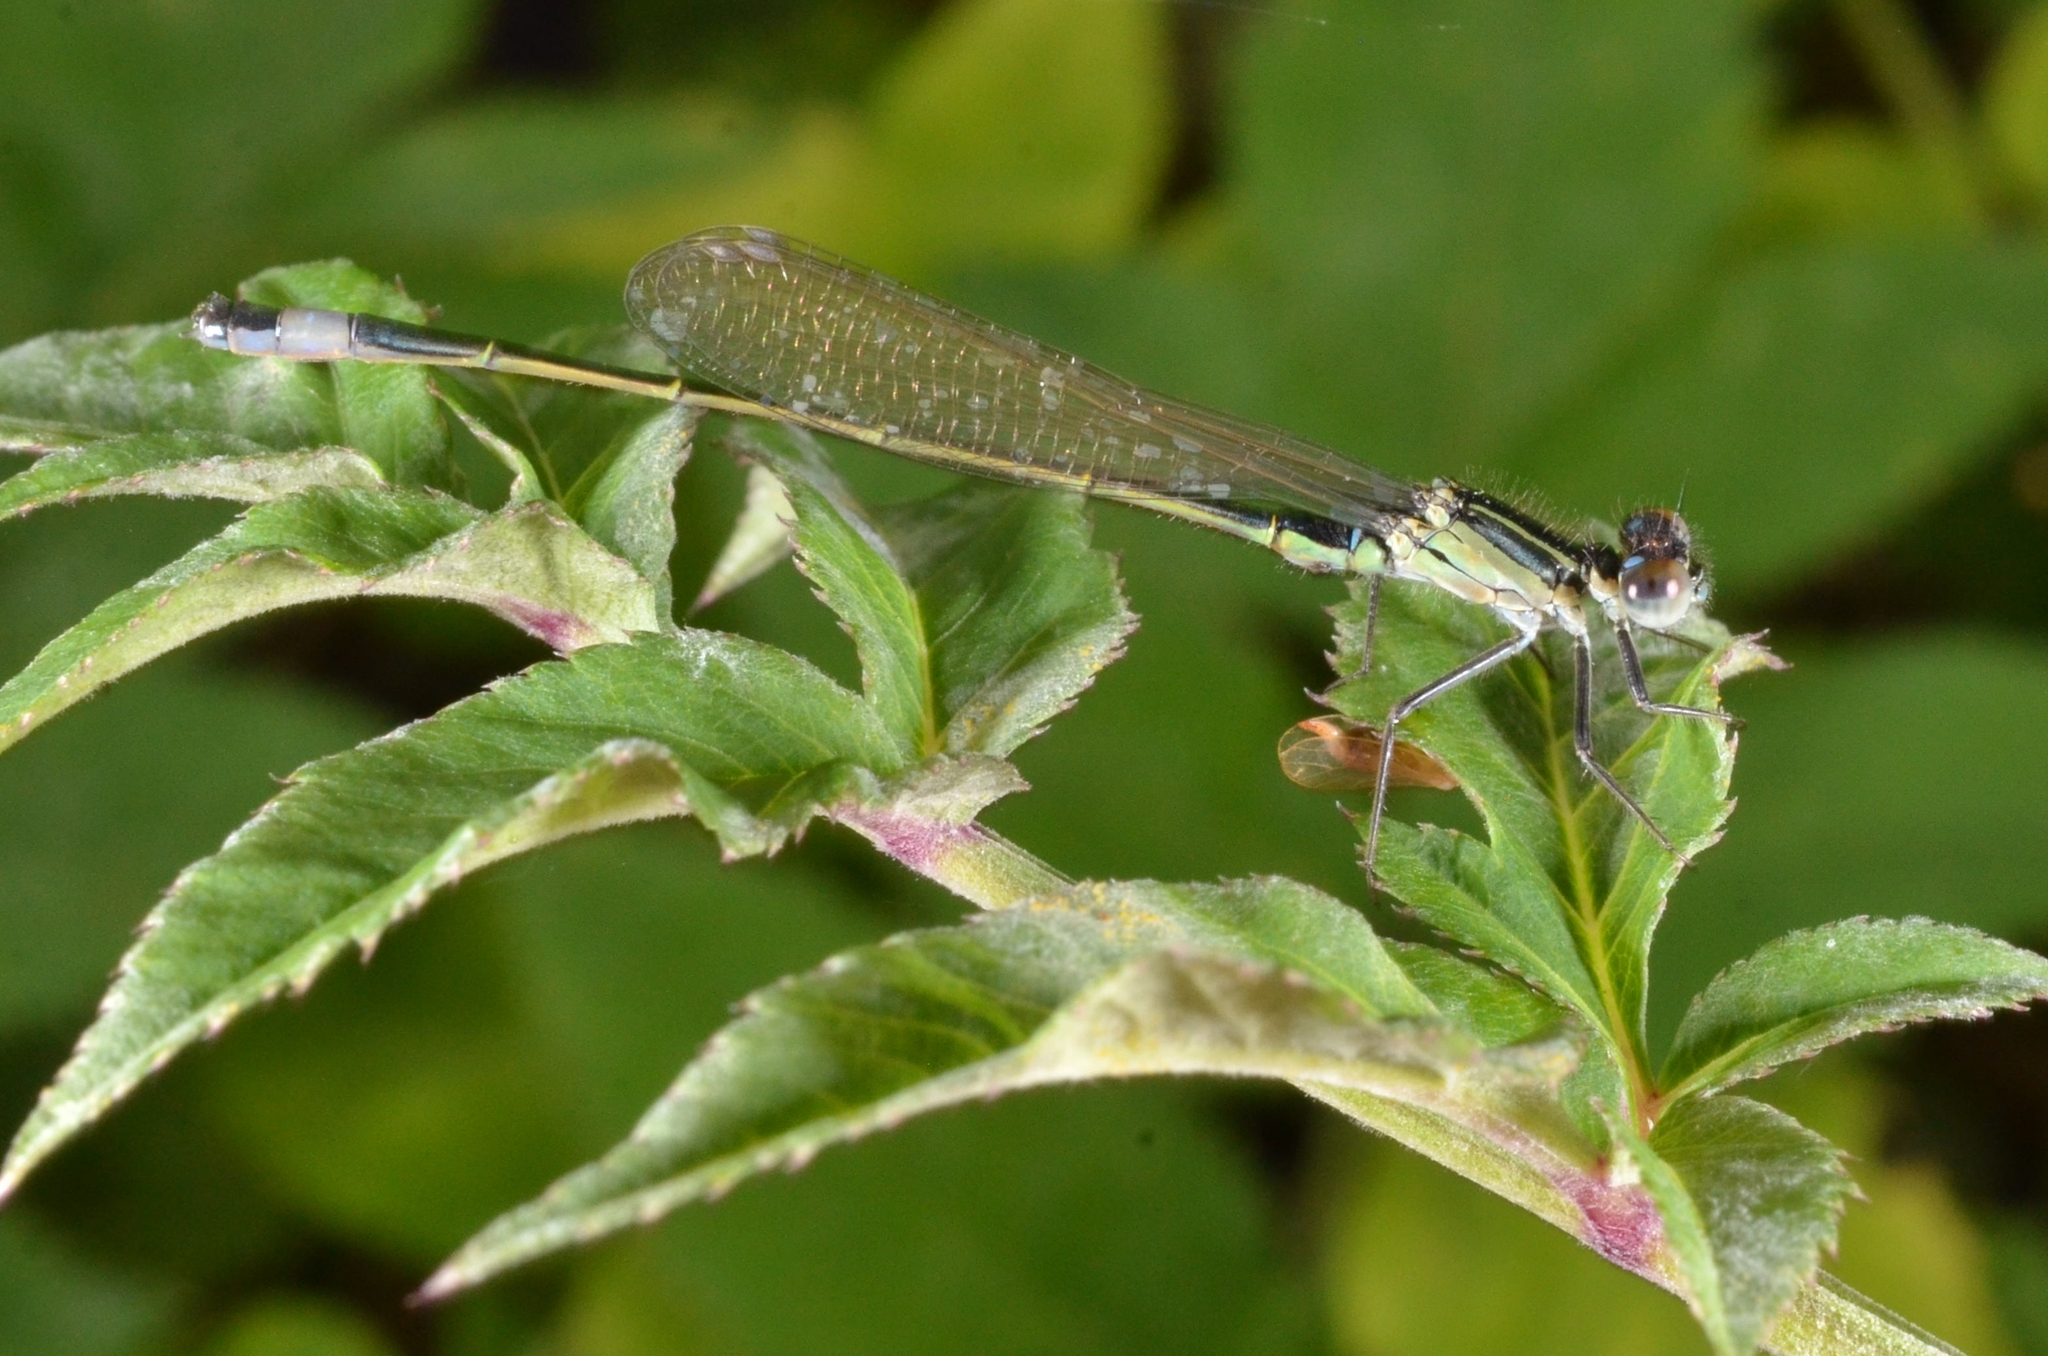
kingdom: Animalia
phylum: Arthropoda
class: Insecta
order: Odonata
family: Coenagrionidae
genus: Ischnura
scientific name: Ischnura elegans
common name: Blue-tailed damselfly
